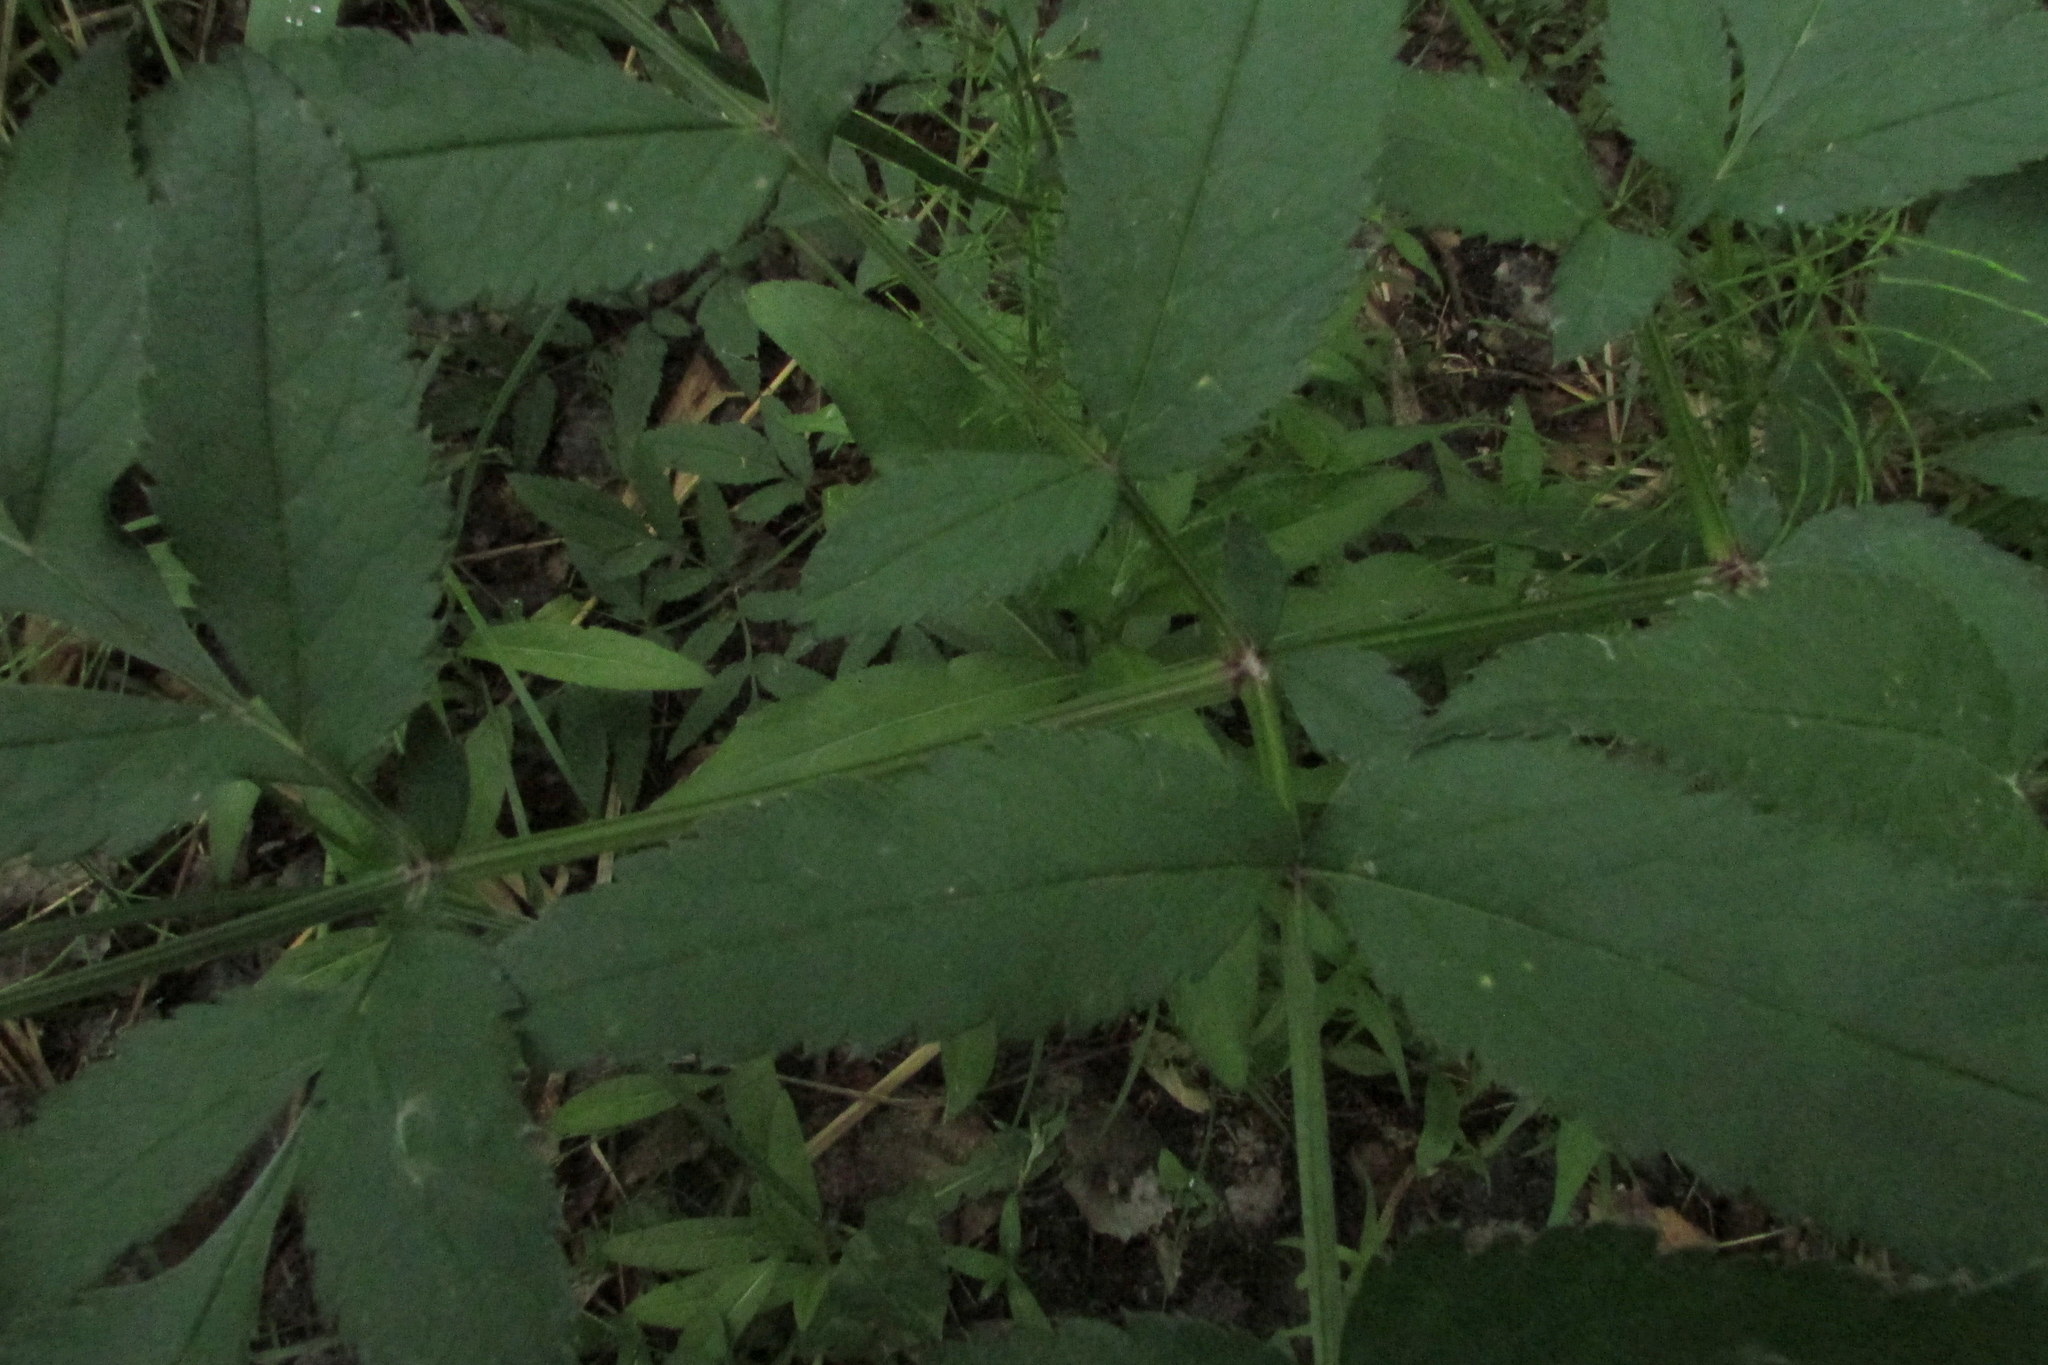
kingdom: Plantae
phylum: Tracheophyta
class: Magnoliopsida
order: Apiales
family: Apiaceae
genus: Angelica
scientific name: Angelica sylvestris
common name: Wild angelica
